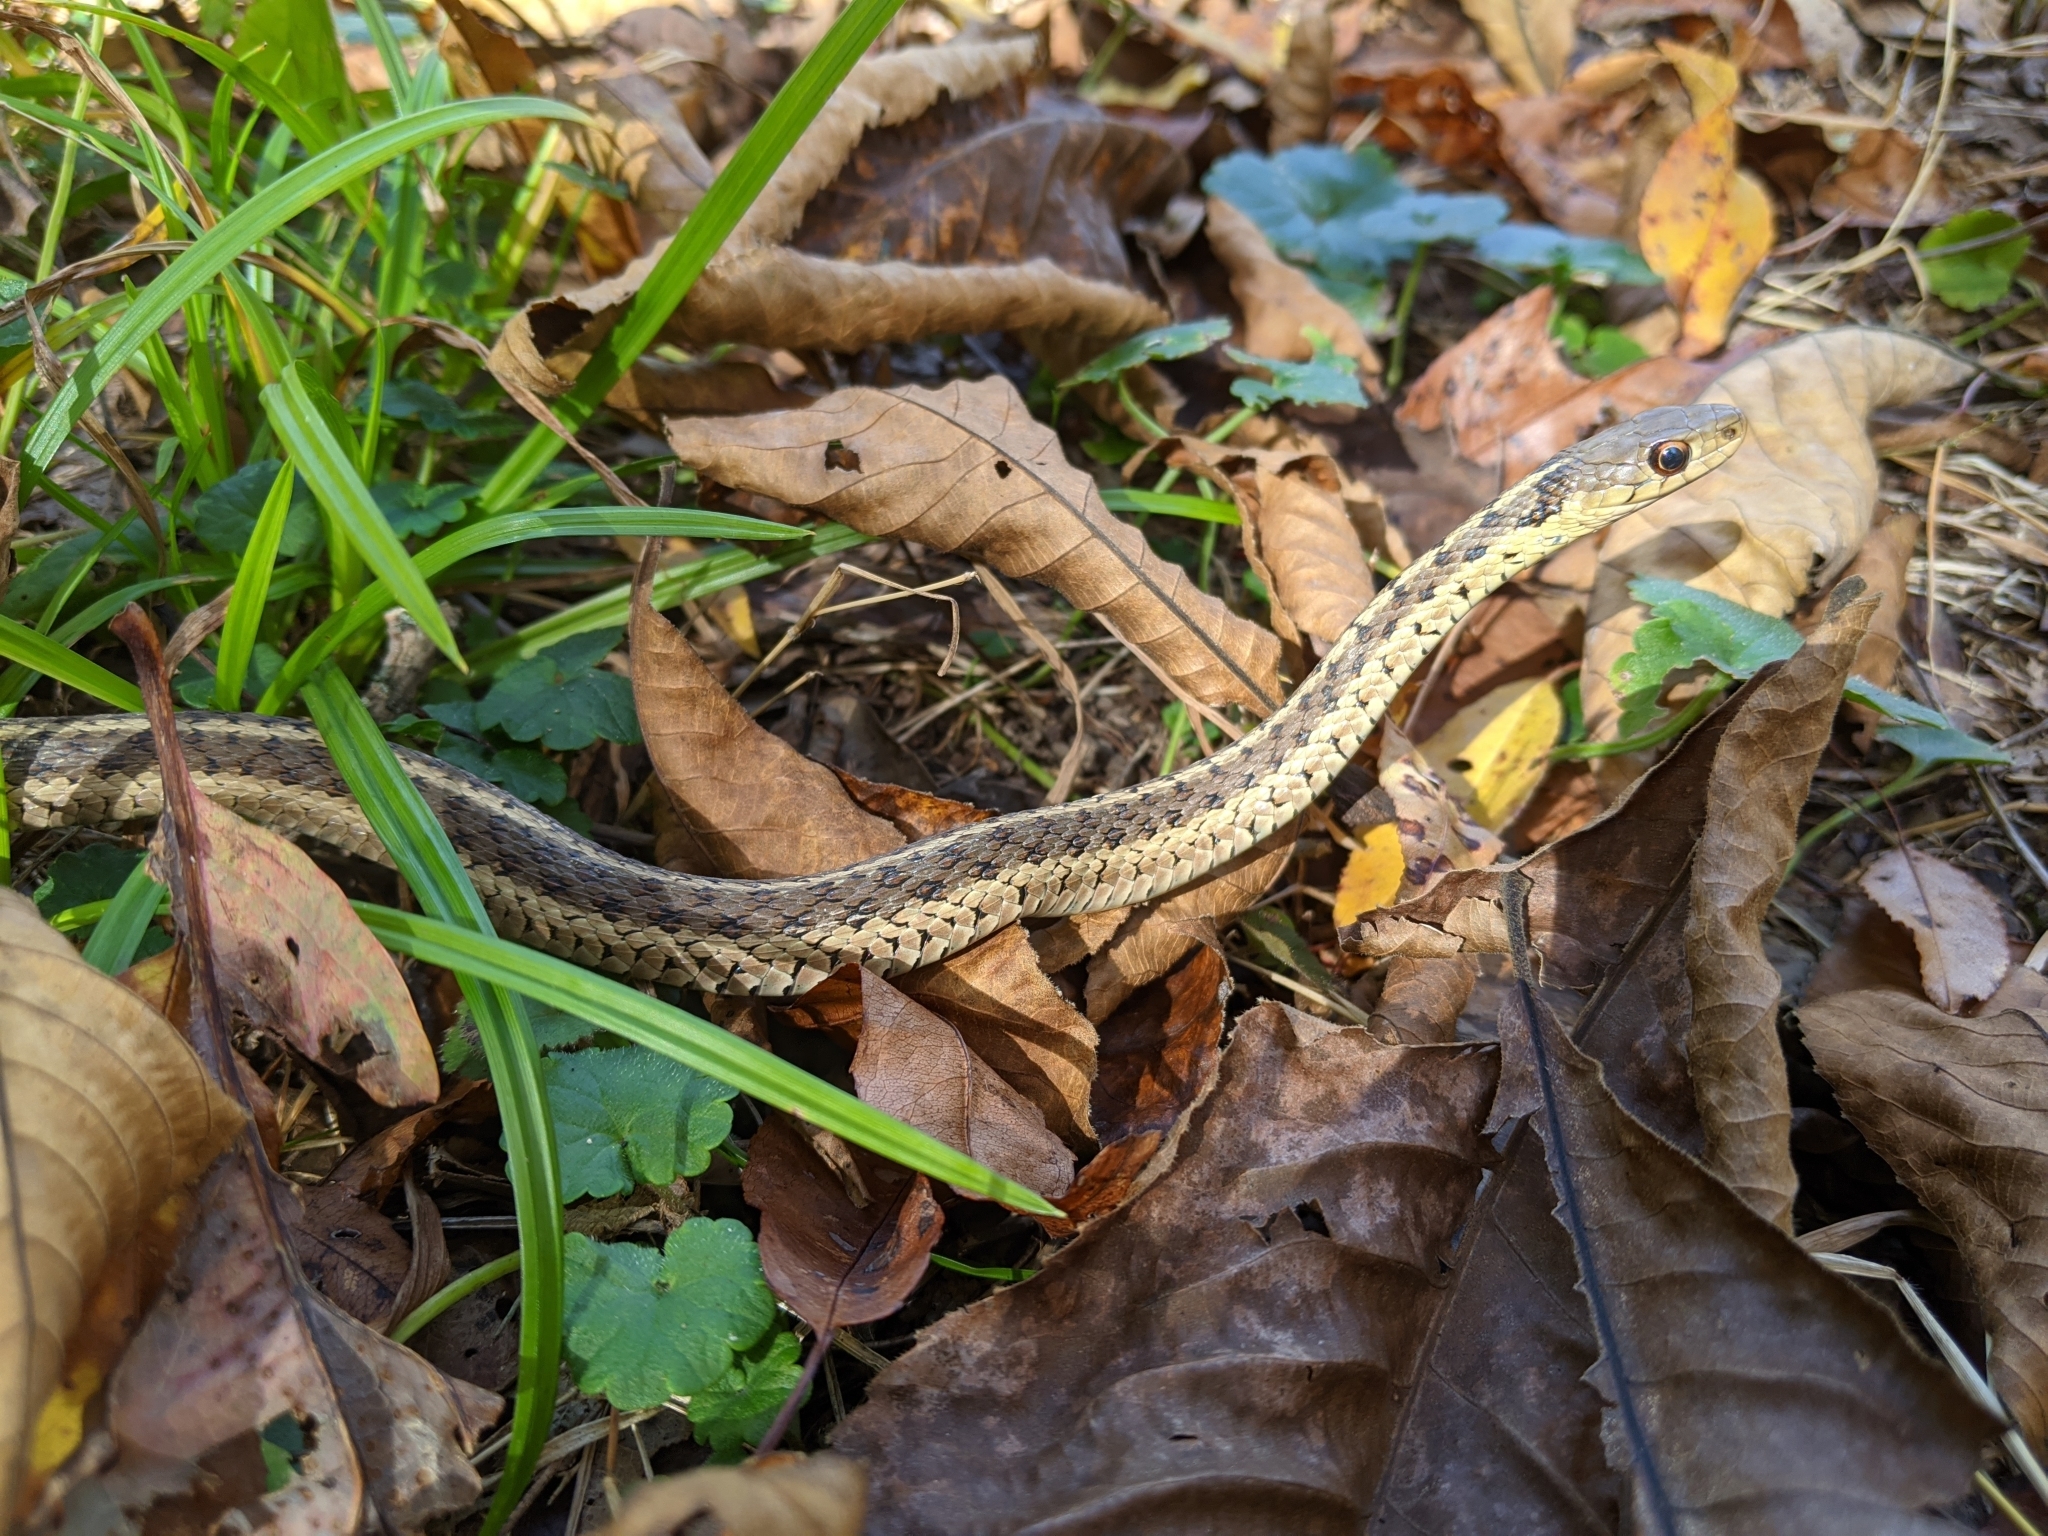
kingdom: Animalia
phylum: Chordata
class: Squamata
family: Colubridae
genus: Thamnophis
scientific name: Thamnophis sirtalis
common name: Common garter snake
